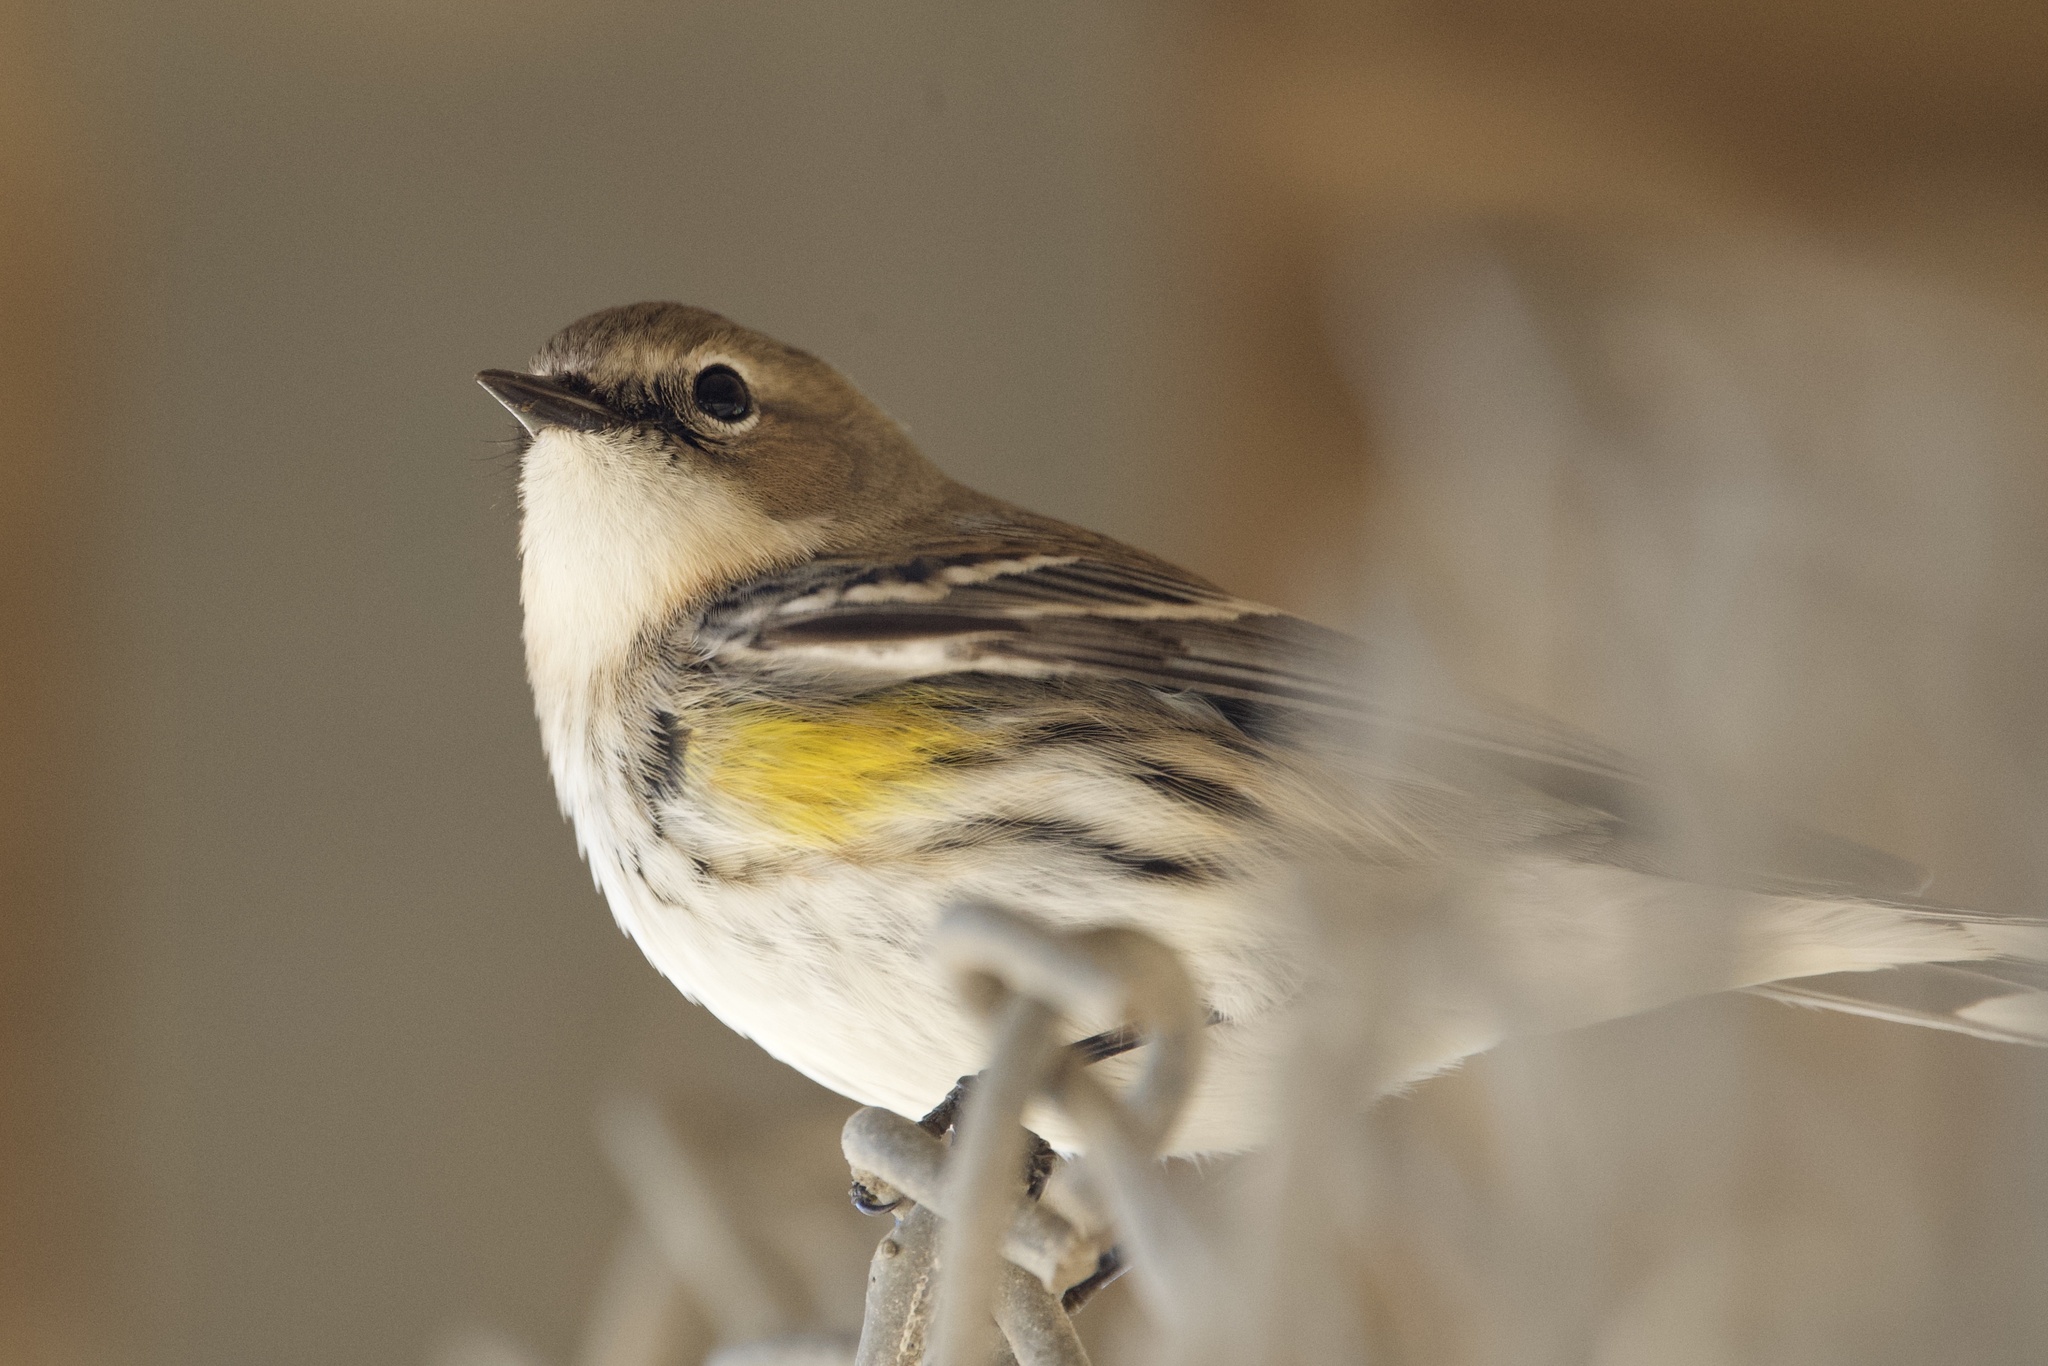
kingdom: Animalia
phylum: Chordata
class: Aves
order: Passeriformes
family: Parulidae
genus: Setophaga
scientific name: Setophaga coronata
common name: Myrtle warbler
